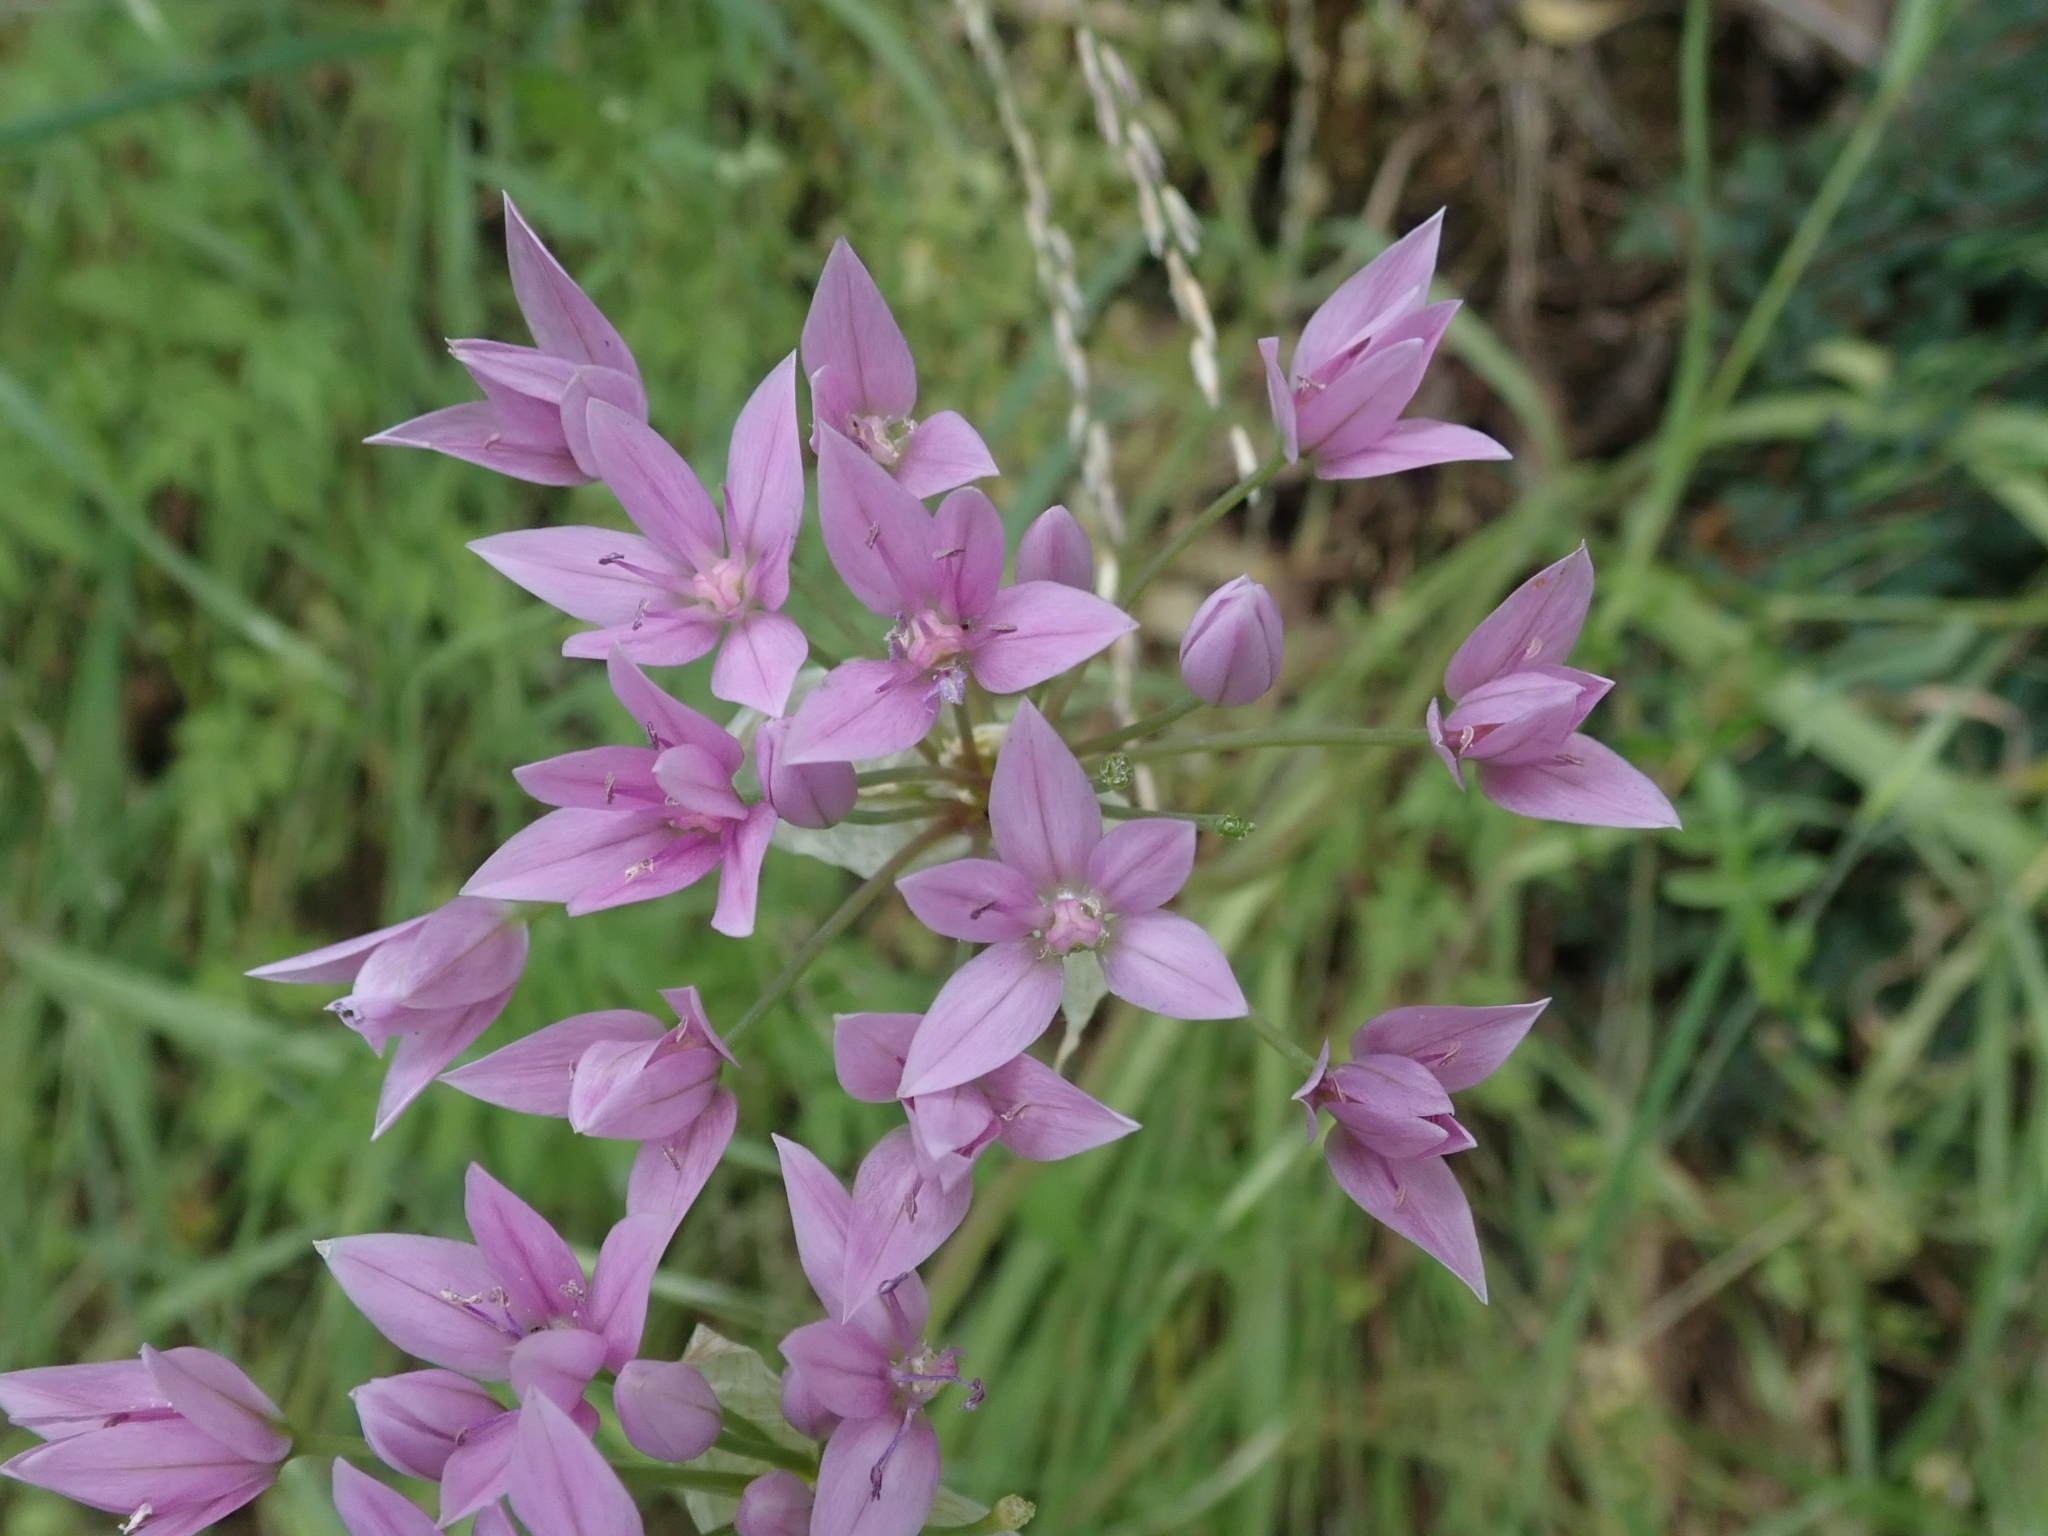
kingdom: Plantae
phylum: Tracheophyta
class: Liliopsida
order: Asparagales
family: Amaryllidaceae
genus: Allium
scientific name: Allium unifolium
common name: American garlic
